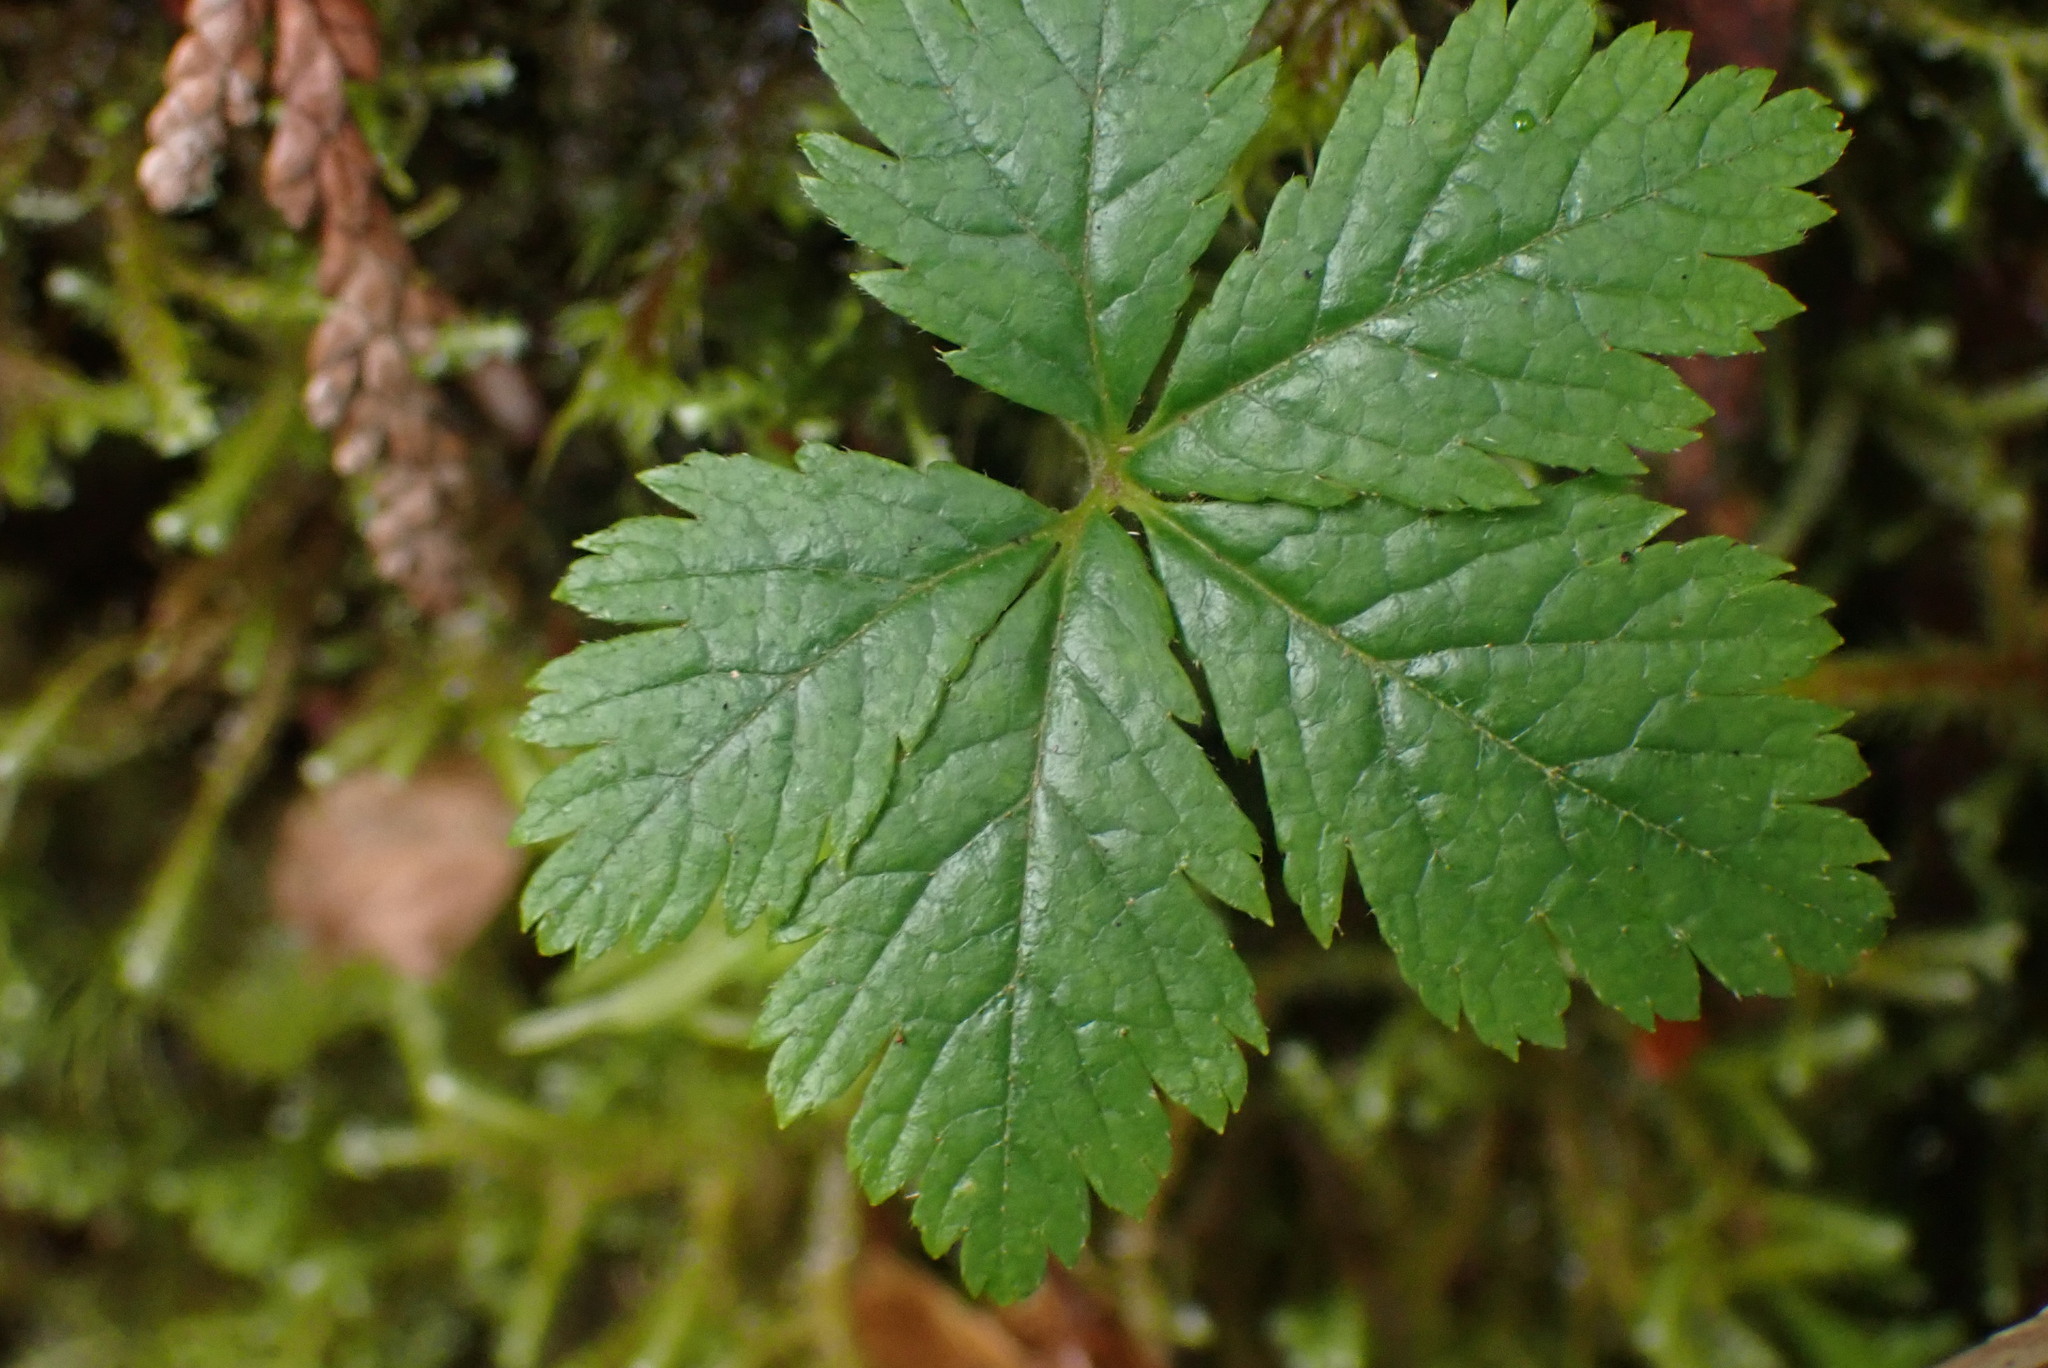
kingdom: Plantae
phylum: Tracheophyta
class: Magnoliopsida
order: Rosales
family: Rosaceae
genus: Rubus
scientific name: Rubus pedatus
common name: Creeping raspberry
